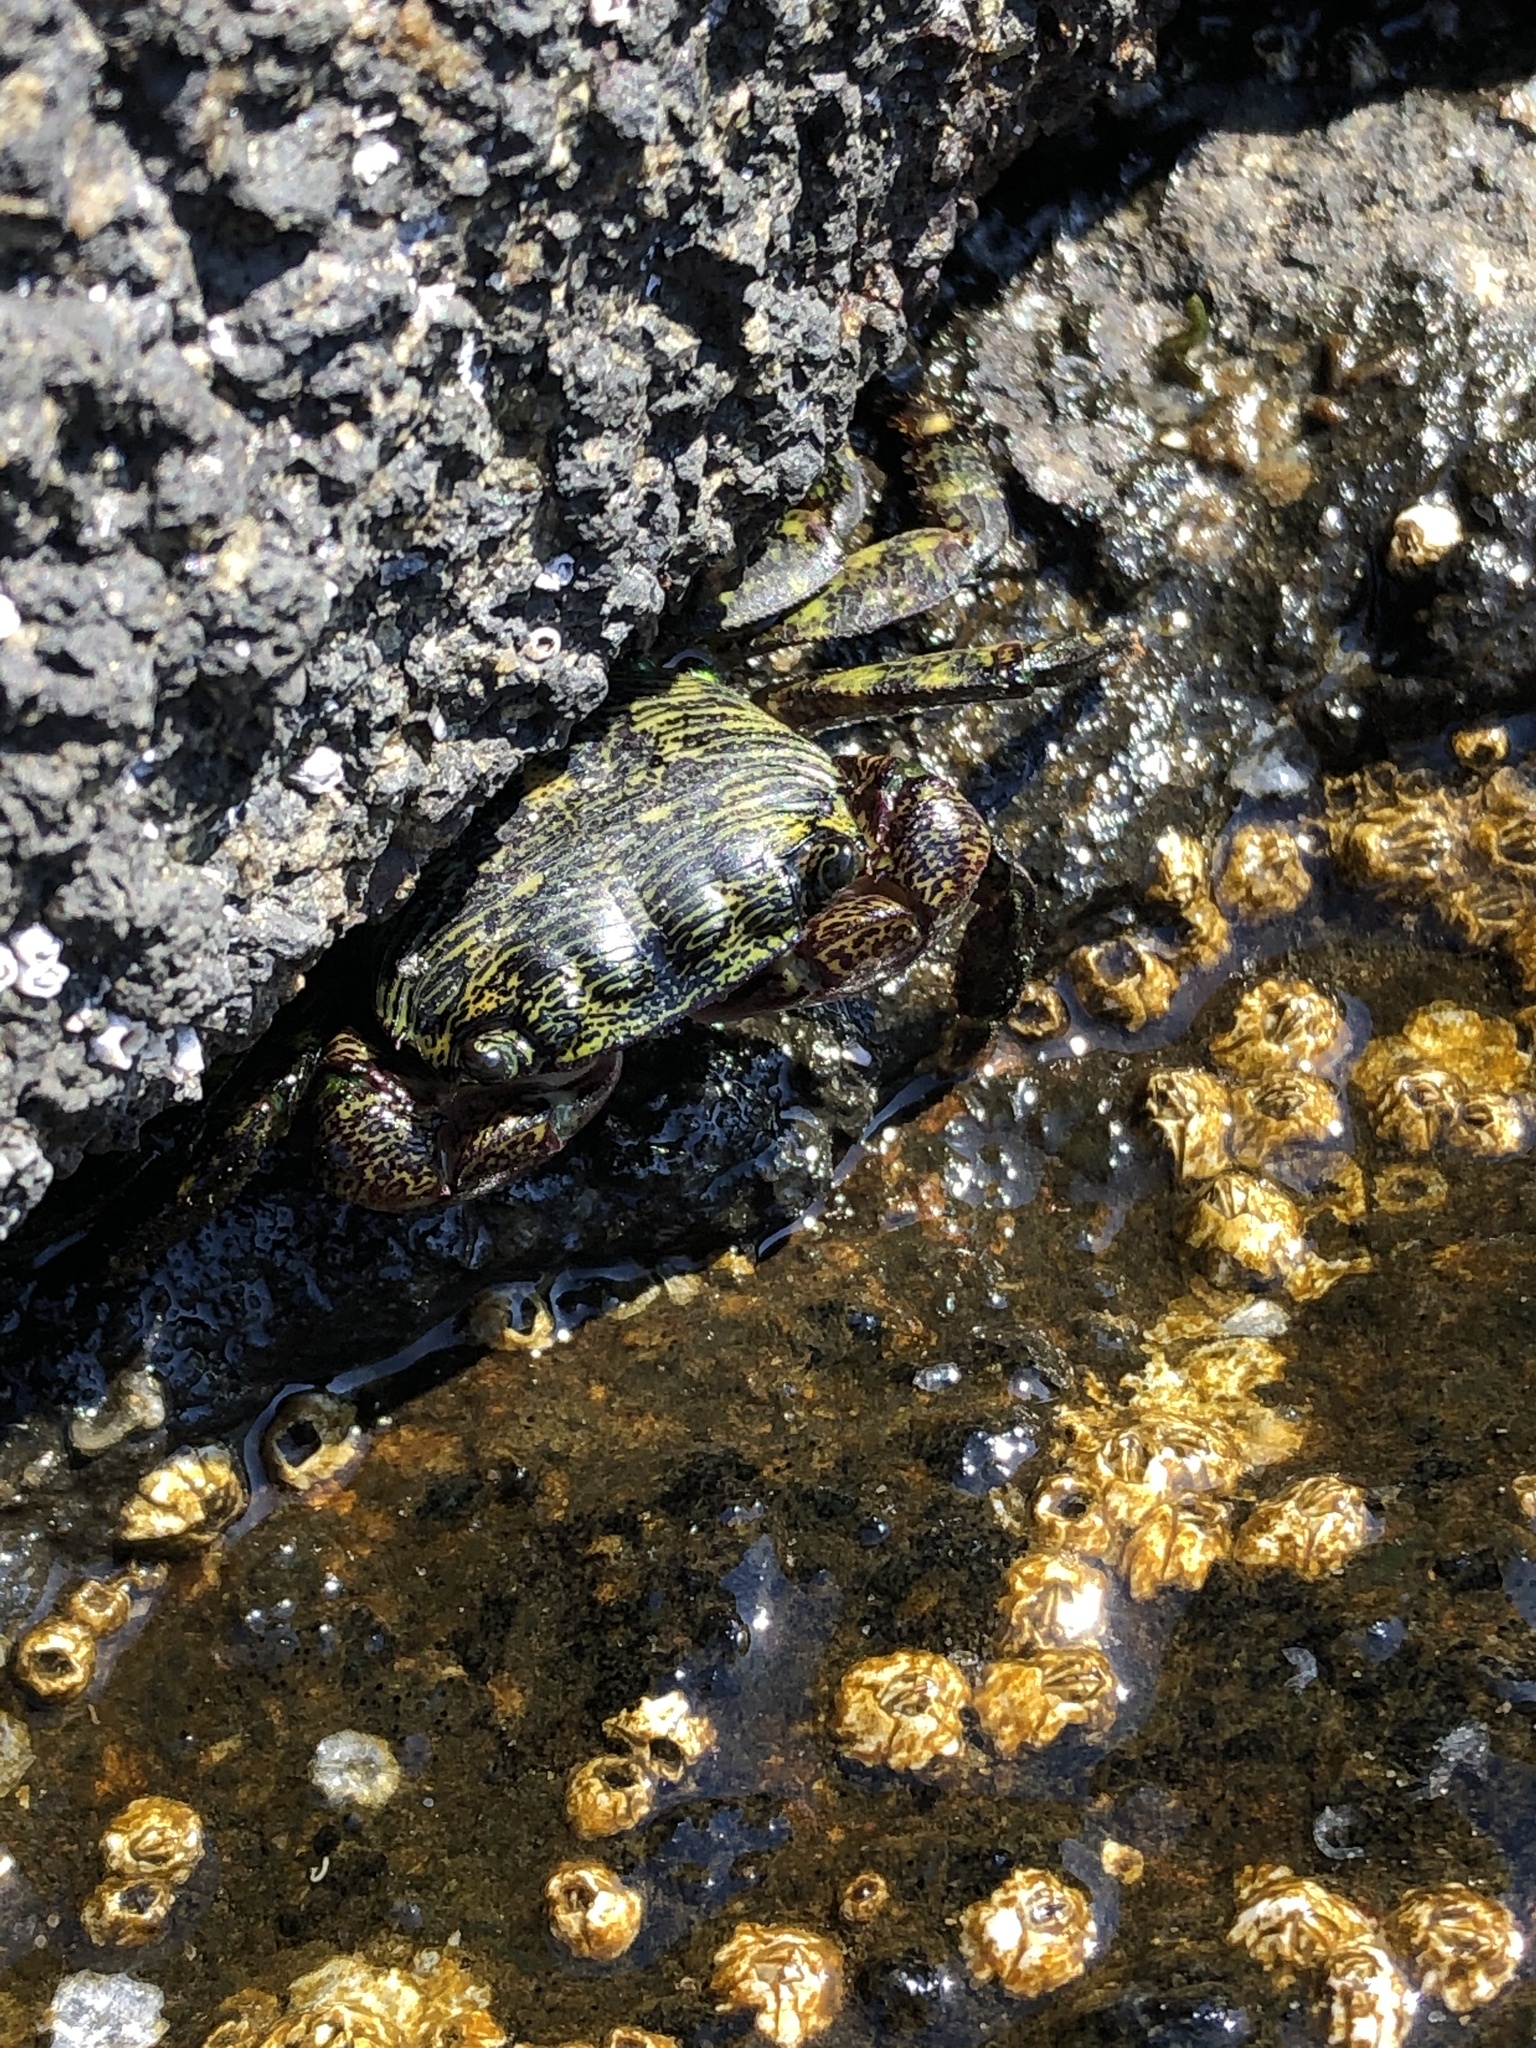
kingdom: Animalia
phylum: Arthropoda
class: Malacostraca
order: Decapoda
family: Grapsidae
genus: Pachygrapsus
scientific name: Pachygrapsus crassipes
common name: Striped shore crab
